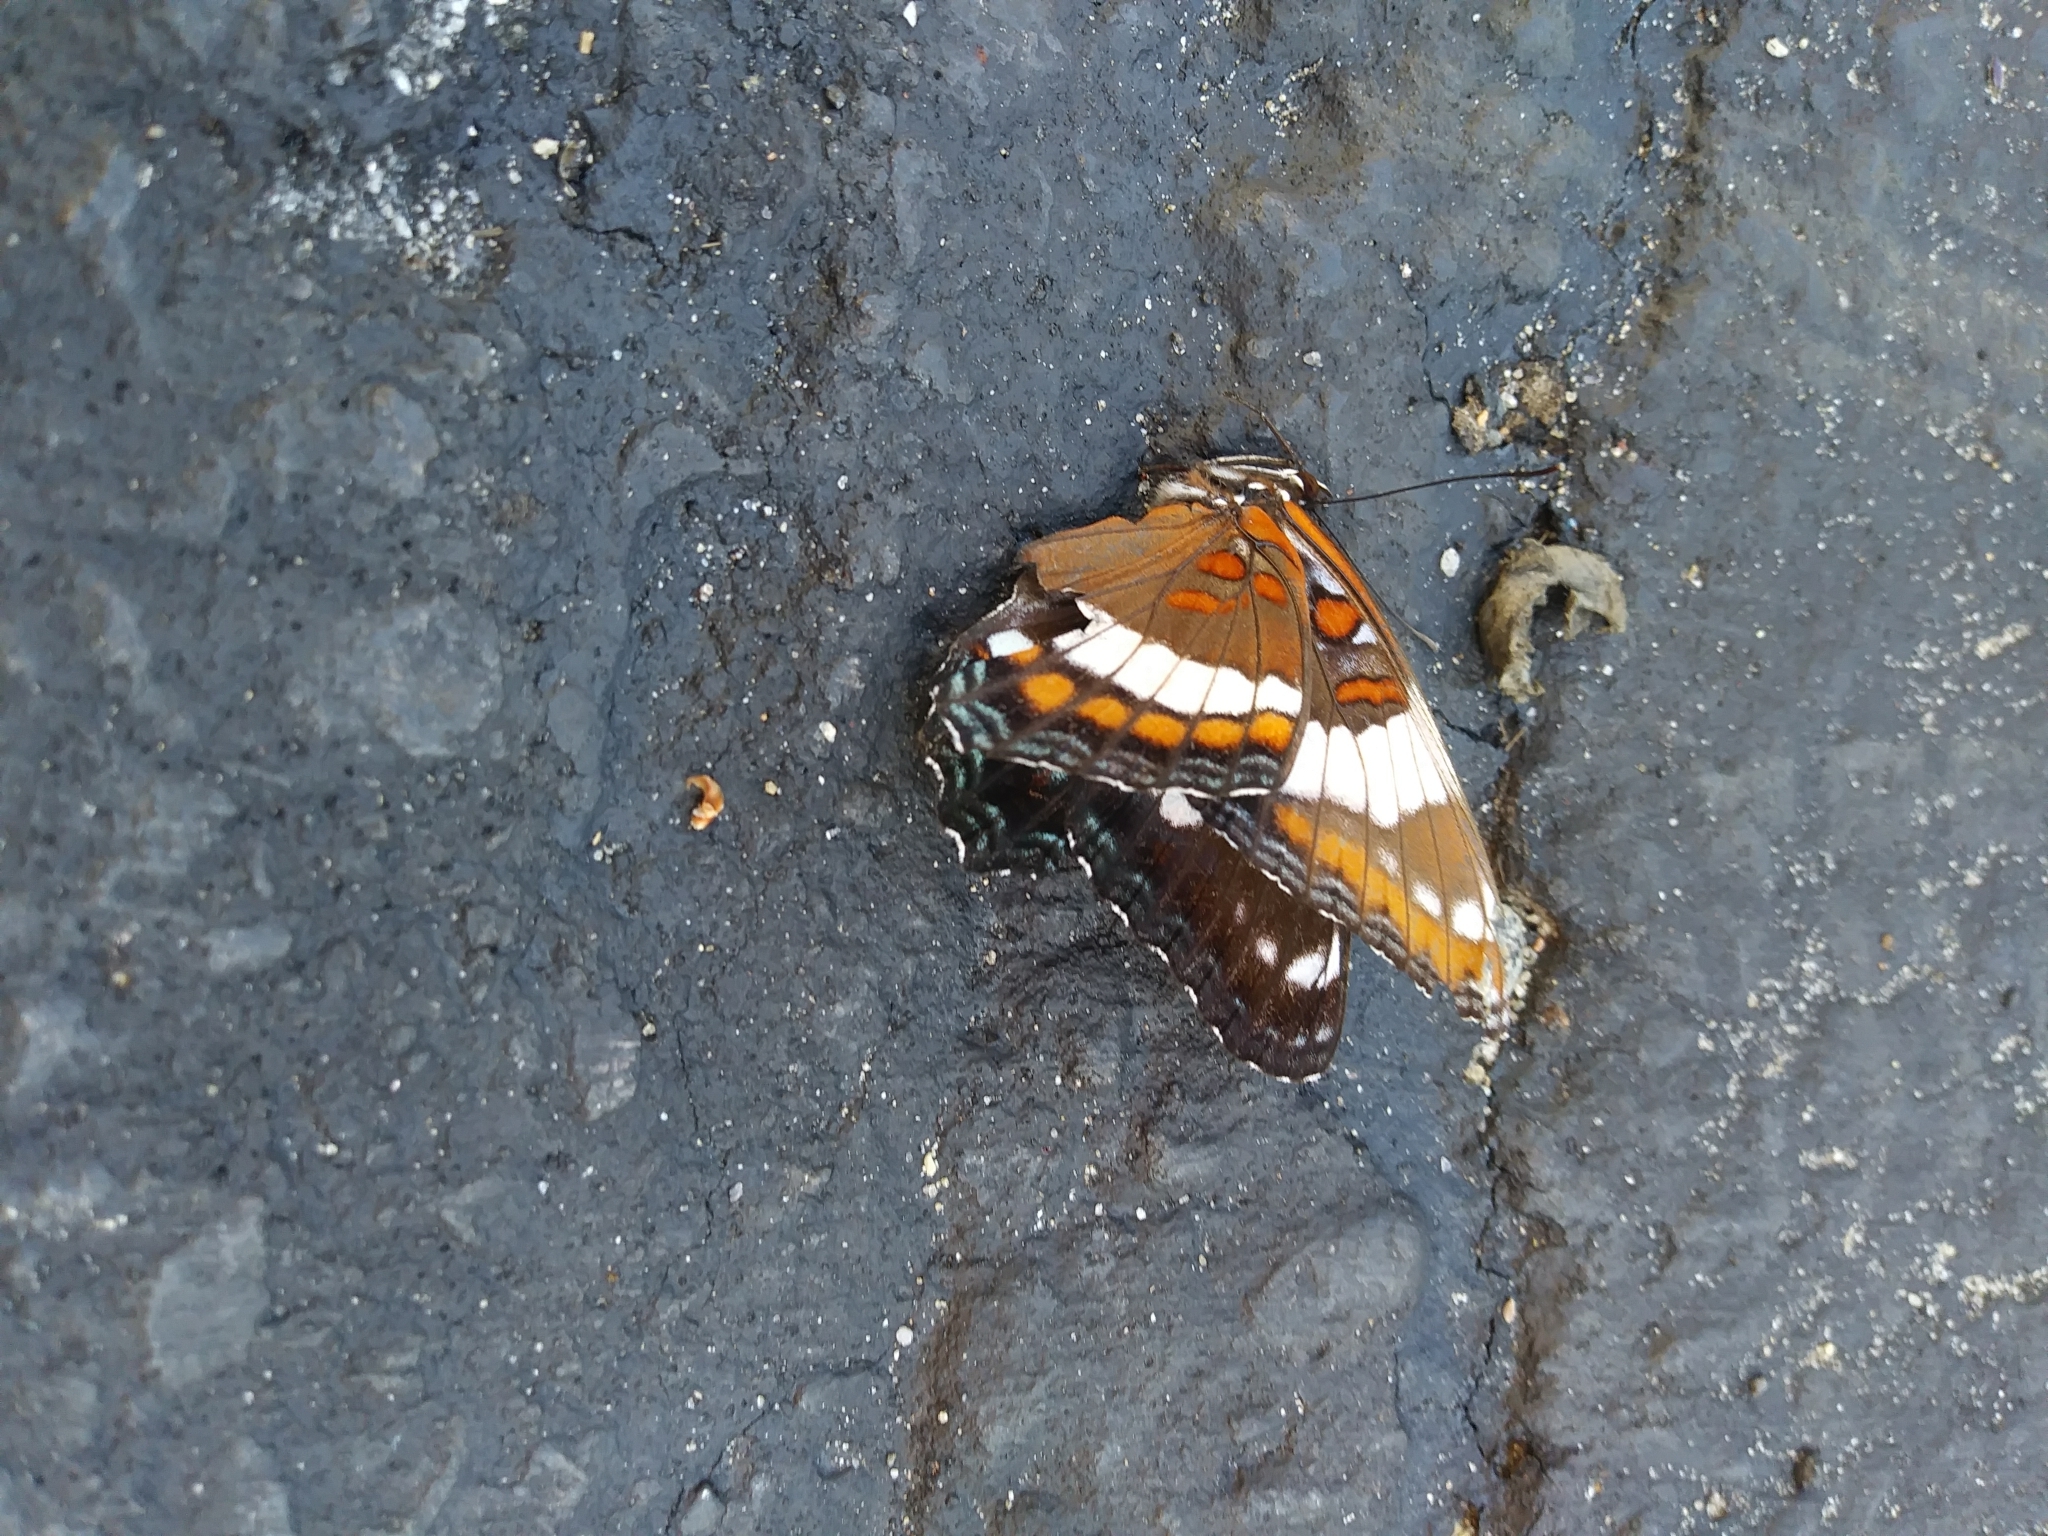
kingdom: Animalia
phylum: Arthropoda
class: Insecta
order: Lepidoptera
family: Nymphalidae
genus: Limenitis
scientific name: Limenitis arthemis
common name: Red-spotted admiral
